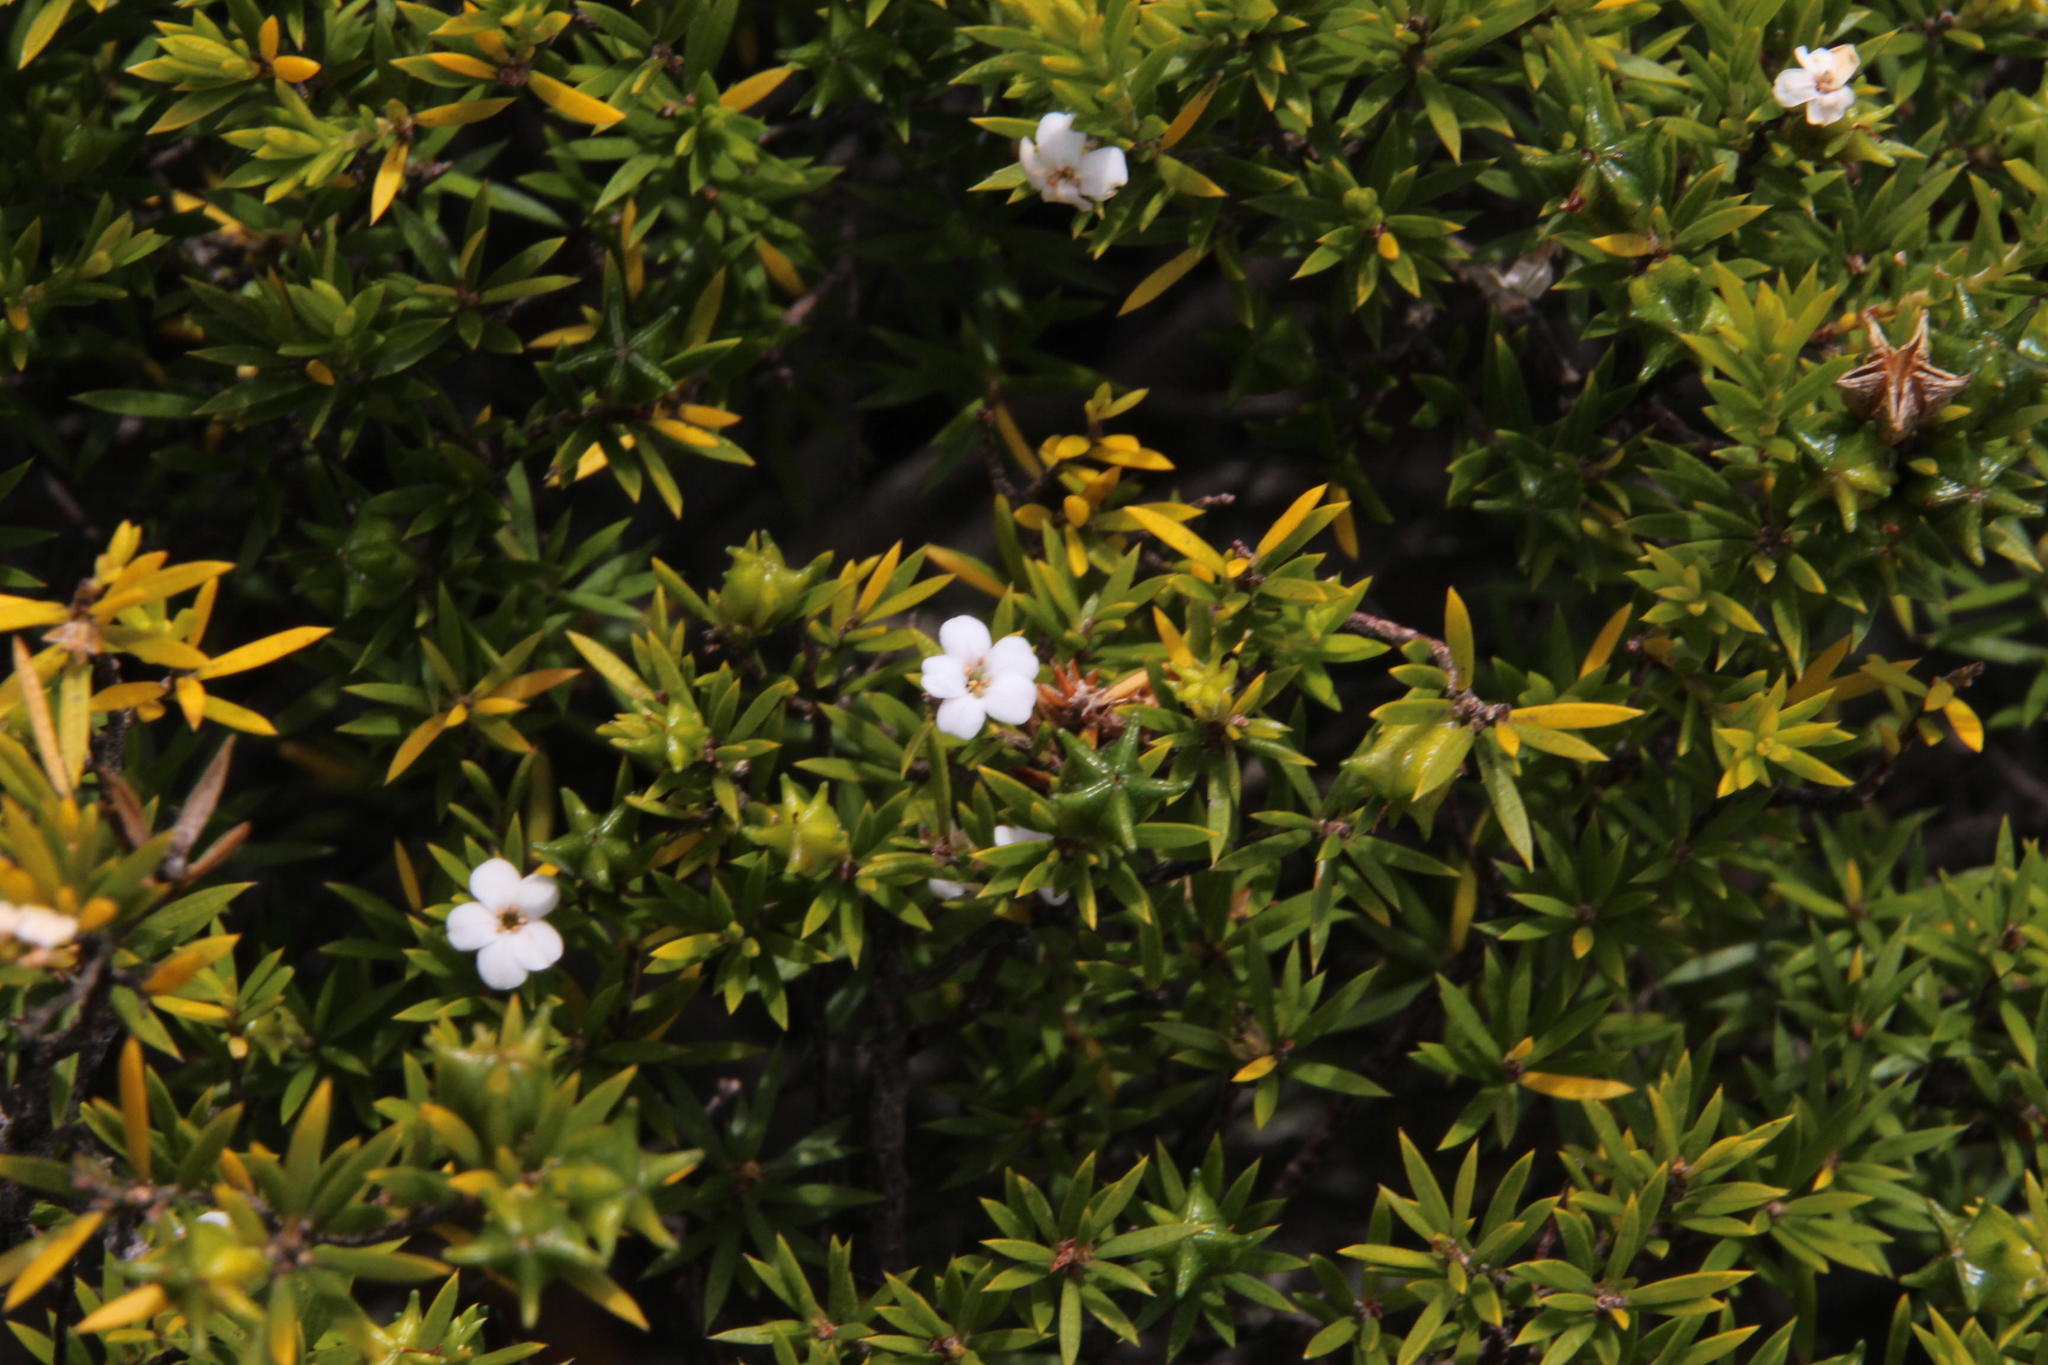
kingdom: Plantae
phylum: Tracheophyta
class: Magnoliopsida
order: Sapindales
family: Rutaceae
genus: Coleonema
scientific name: Coleonema album
